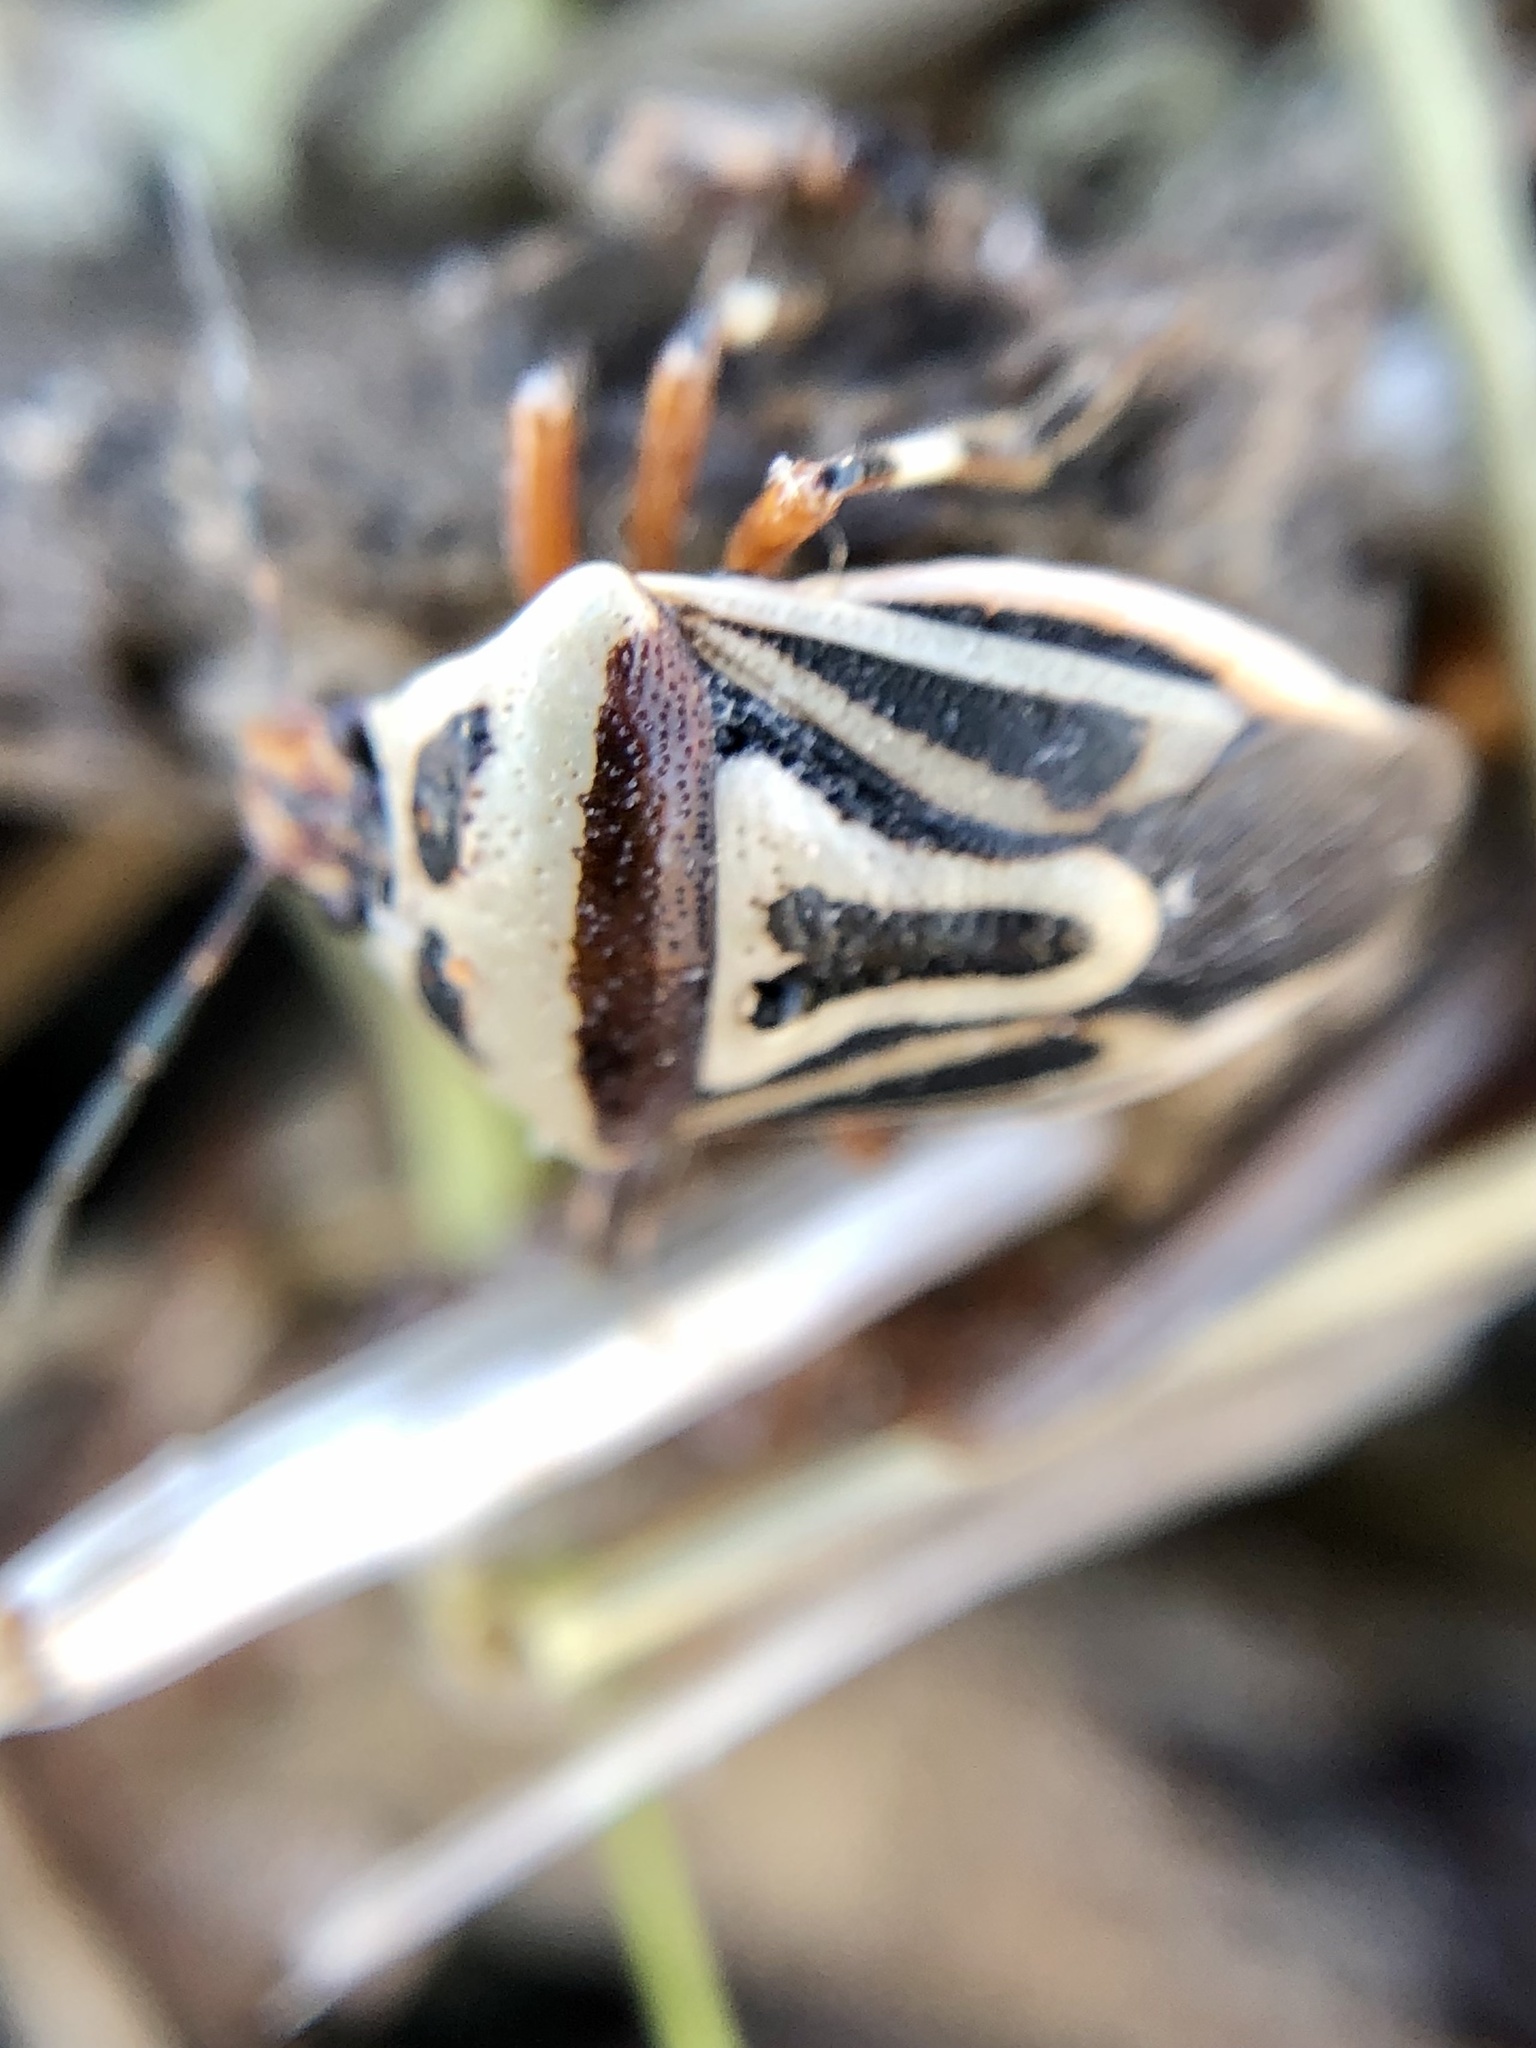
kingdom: Animalia
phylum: Arthropoda
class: Insecta
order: Hemiptera
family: Pentatomidae
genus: Perillus
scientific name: Perillus bioculatus
